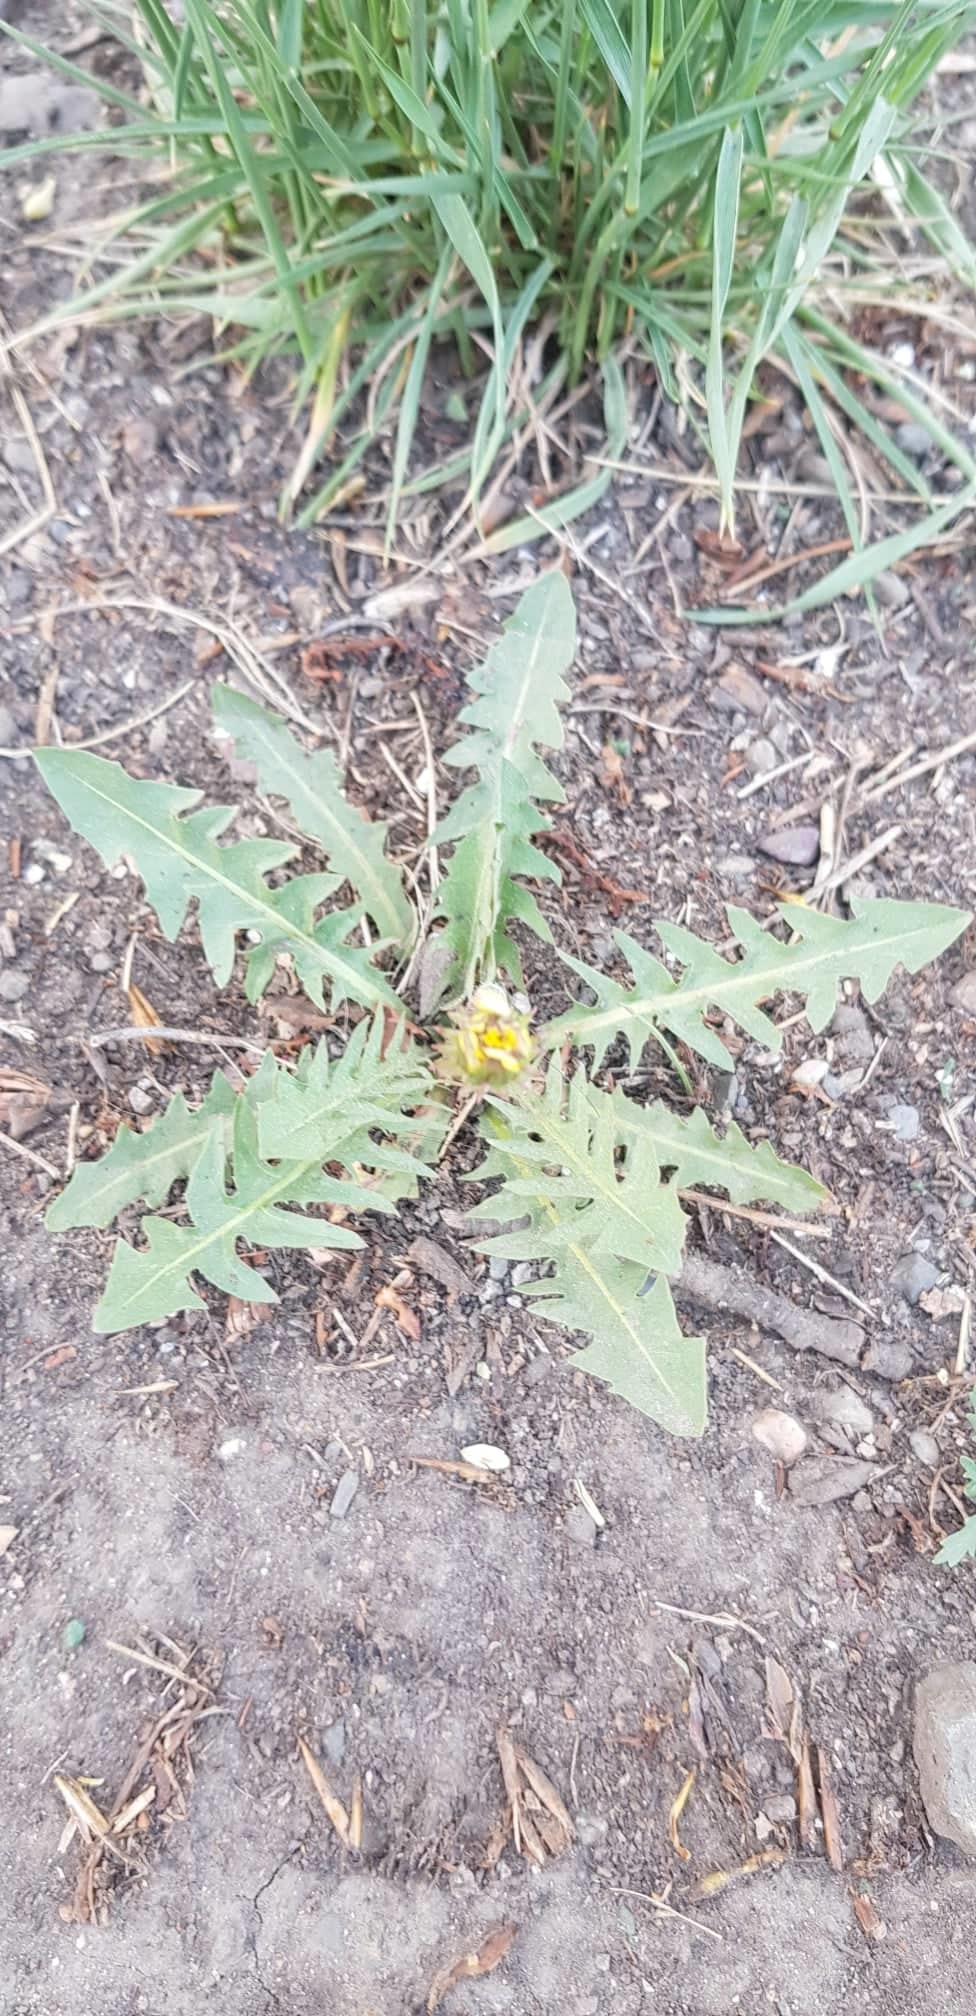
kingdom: Plantae
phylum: Tracheophyta
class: Magnoliopsida
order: Asterales
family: Asteraceae
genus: Taraxacum
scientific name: Taraxacum officinale
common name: Common dandelion
